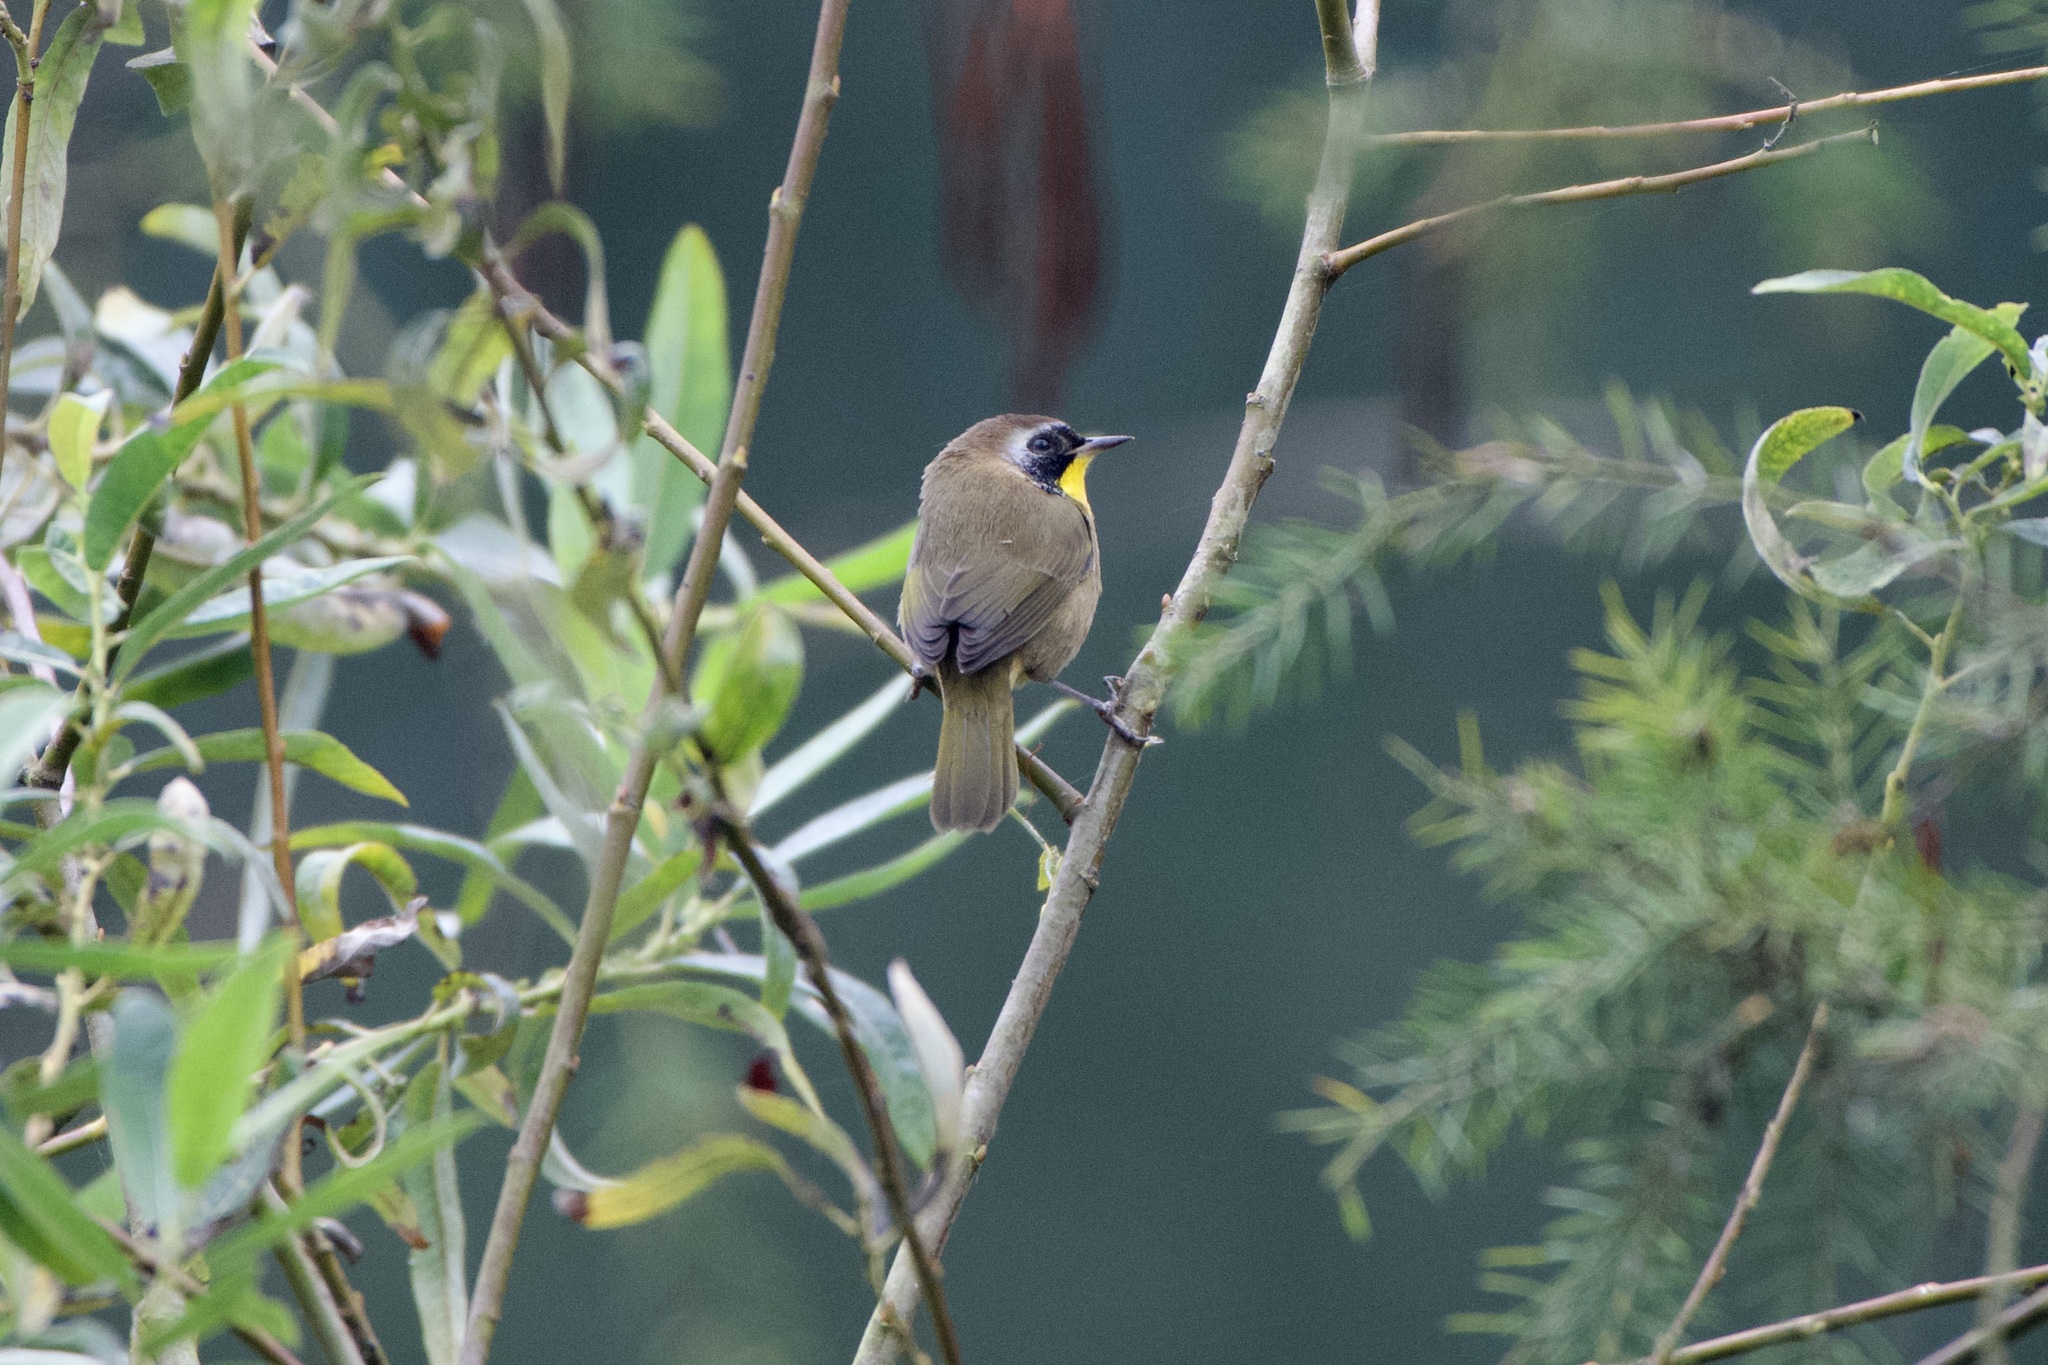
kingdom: Animalia
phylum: Chordata
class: Aves
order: Passeriformes
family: Parulidae
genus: Geothlypis
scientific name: Geothlypis trichas
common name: Common yellowthroat
